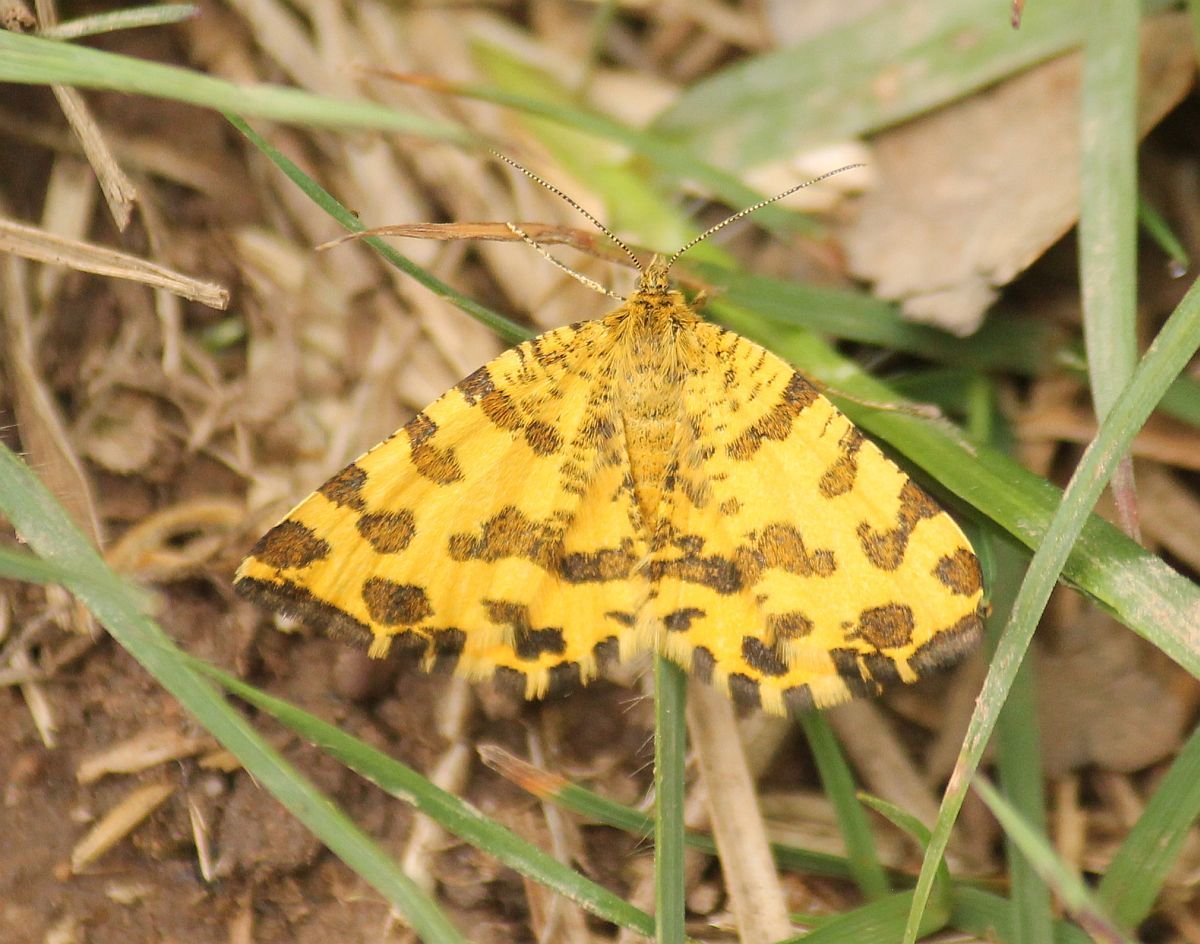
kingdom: Animalia
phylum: Arthropoda
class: Insecta
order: Lepidoptera
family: Geometridae
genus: Pseudopanthera
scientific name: Pseudopanthera macularia
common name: Speckled yellow
